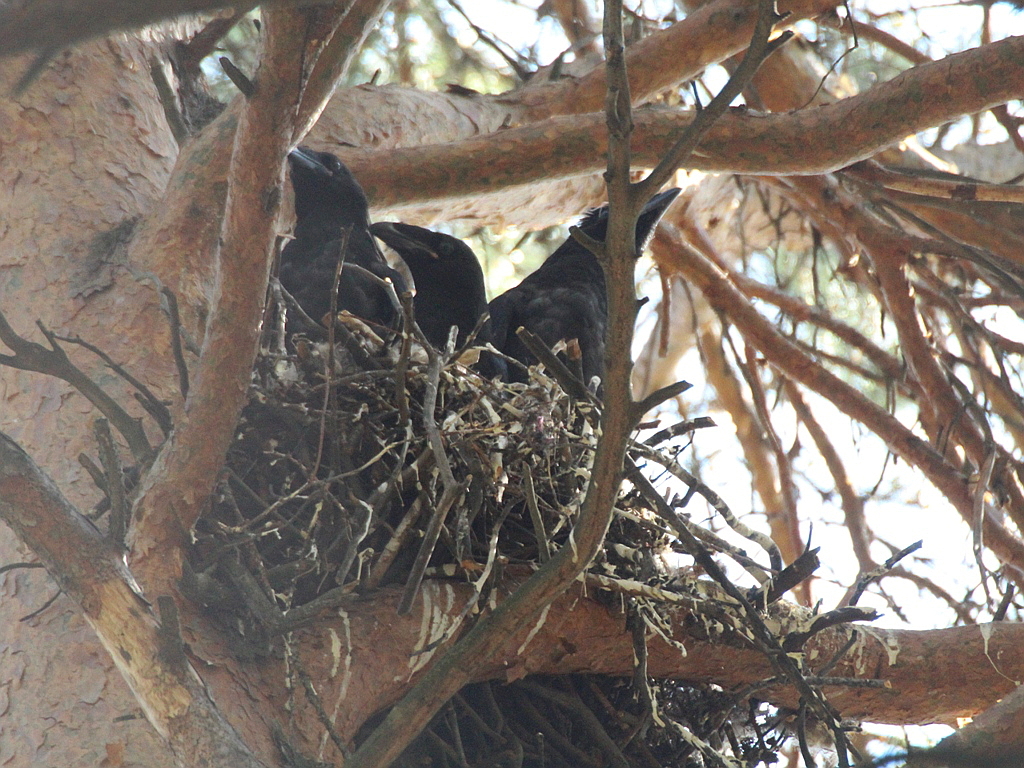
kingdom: Animalia
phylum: Chordata
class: Aves
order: Passeriformes
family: Corvidae
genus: Corvus
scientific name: Corvus corax
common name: Common raven
